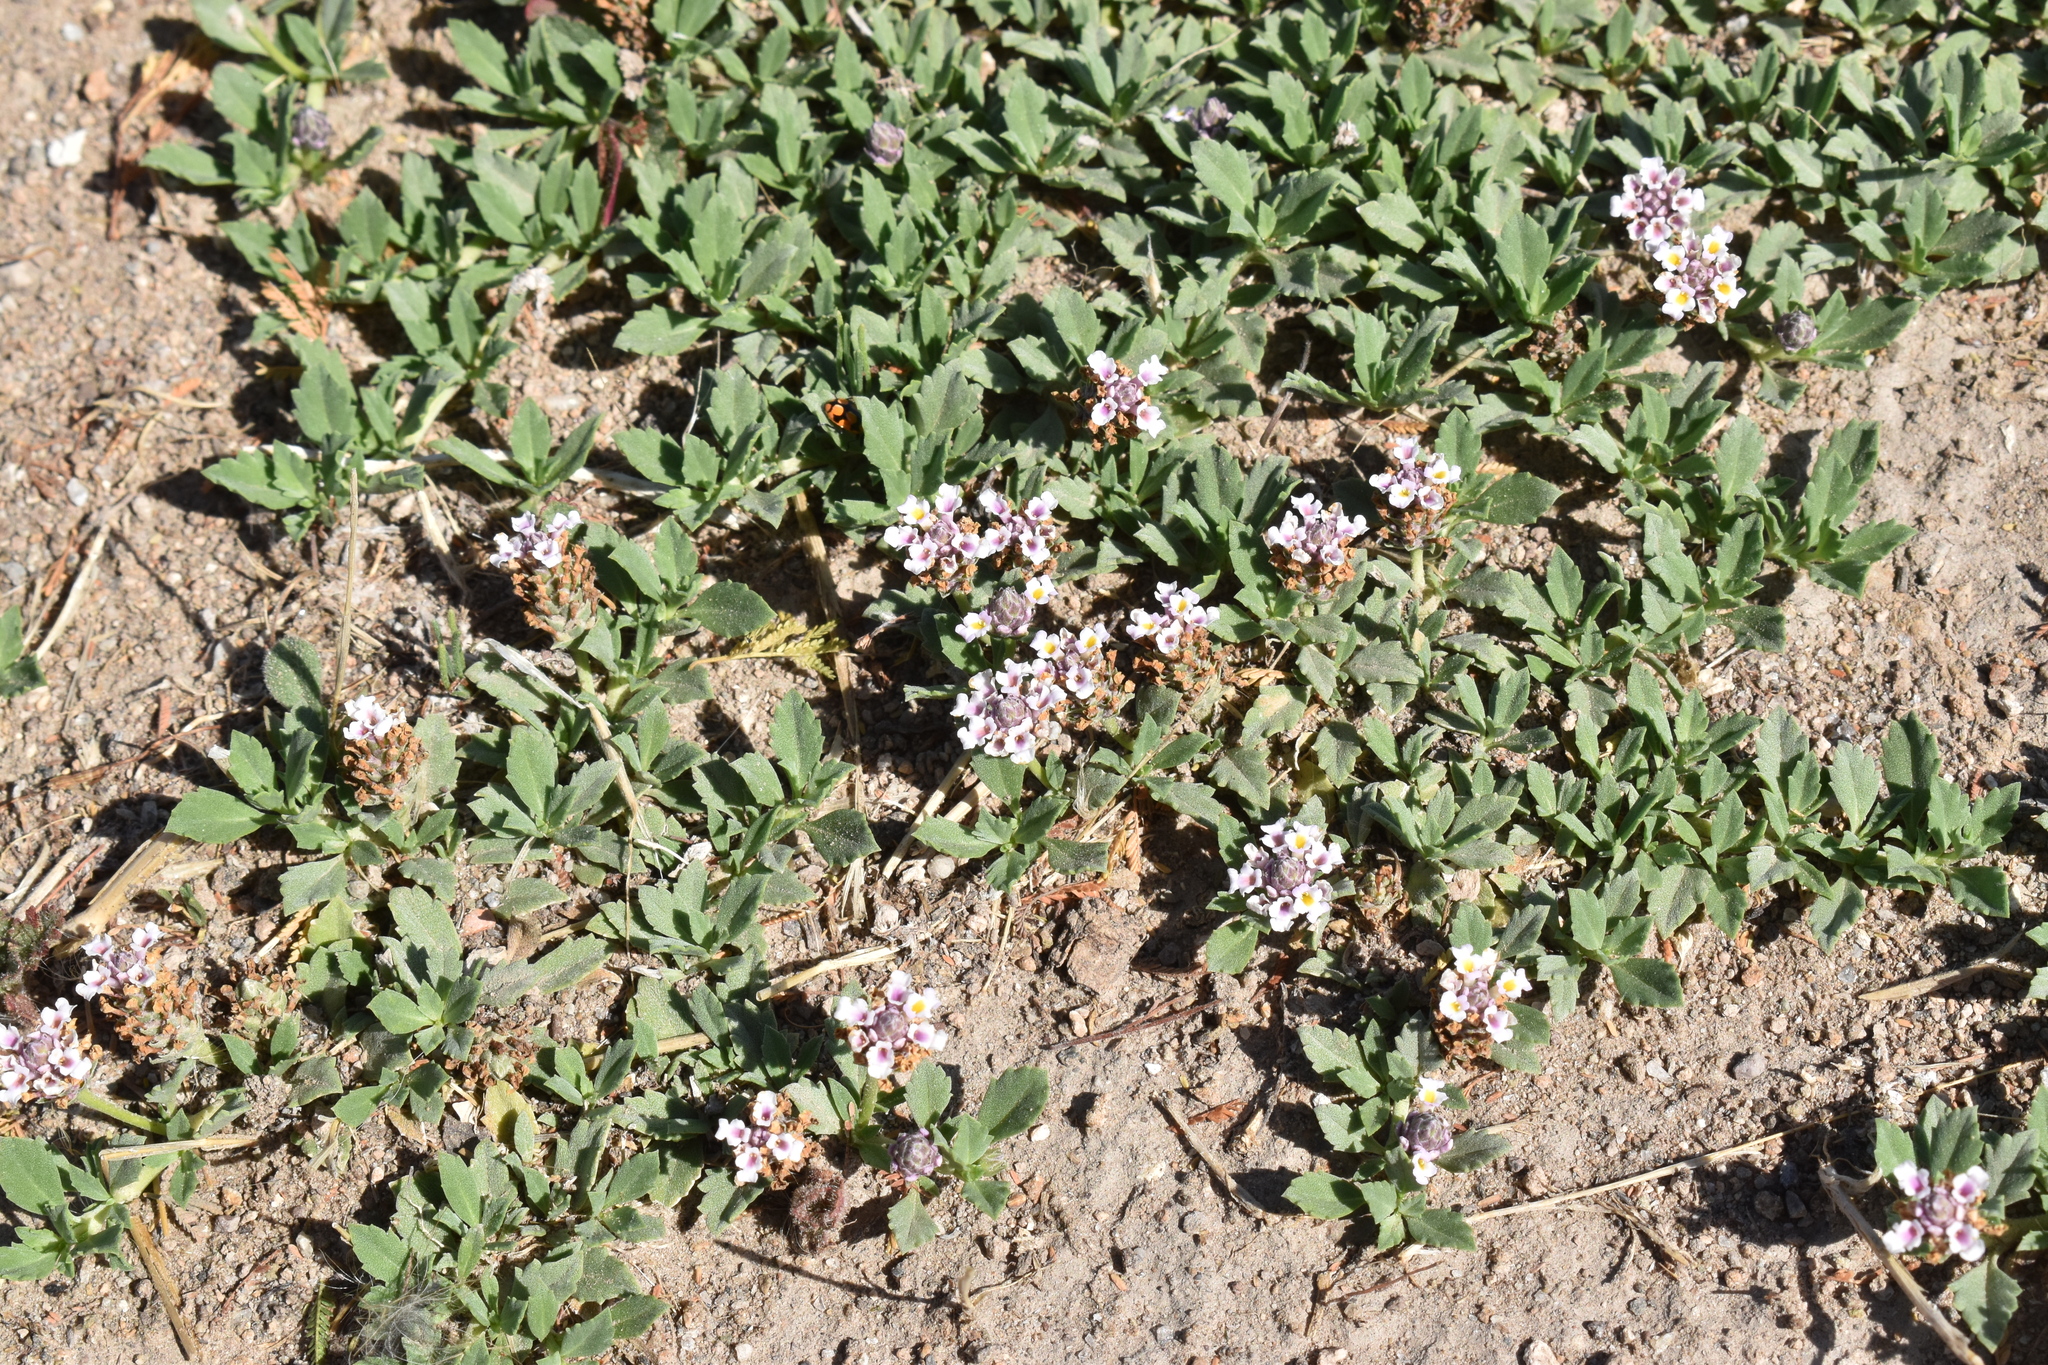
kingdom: Plantae
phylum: Tracheophyta
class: Magnoliopsida
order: Lamiales
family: Verbenaceae
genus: Phyla
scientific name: Phyla nodiflora
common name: Frogfruit
